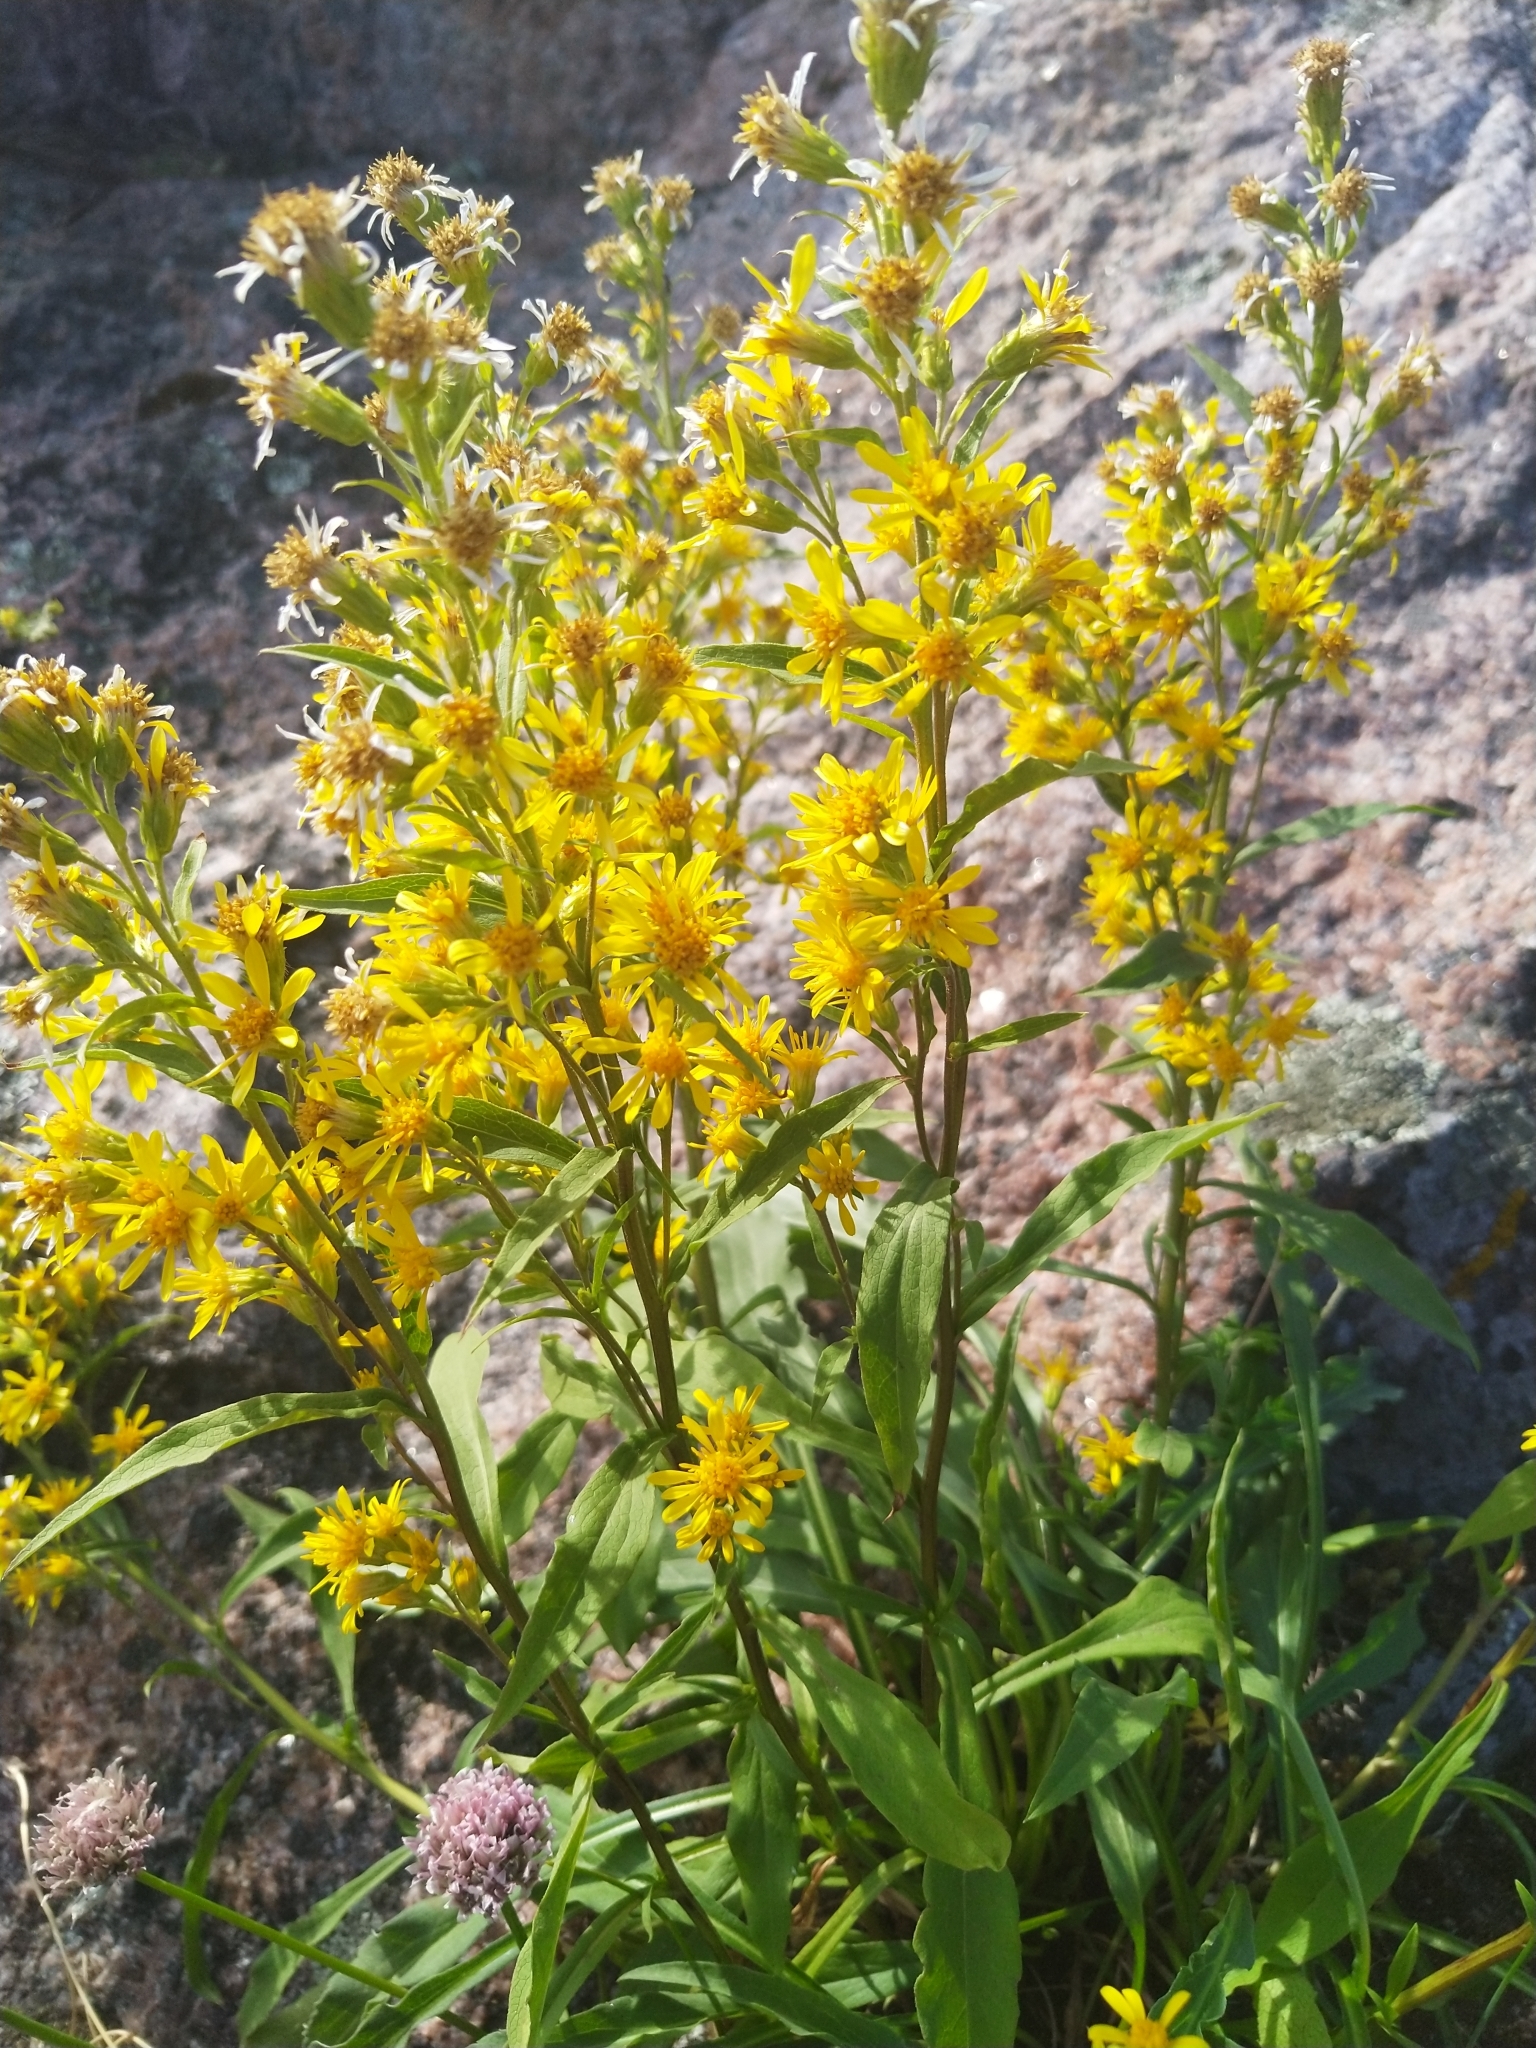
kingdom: Plantae
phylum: Tracheophyta
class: Magnoliopsida
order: Asterales
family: Asteraceae
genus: Solidago
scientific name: Solidago virgaurea
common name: Goldenrod
